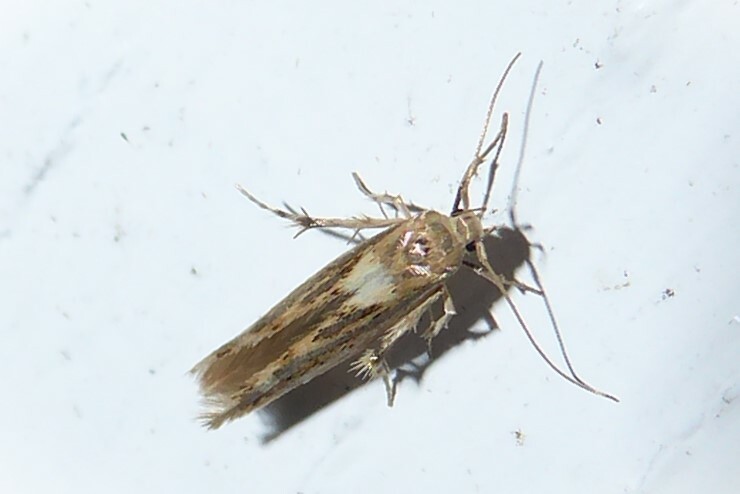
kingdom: Animalia
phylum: Arthropoda
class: Insecta
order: Lepidoptera
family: Stathmopodidae
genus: Stathmopoda
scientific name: Stathmopoda plumbiflua
